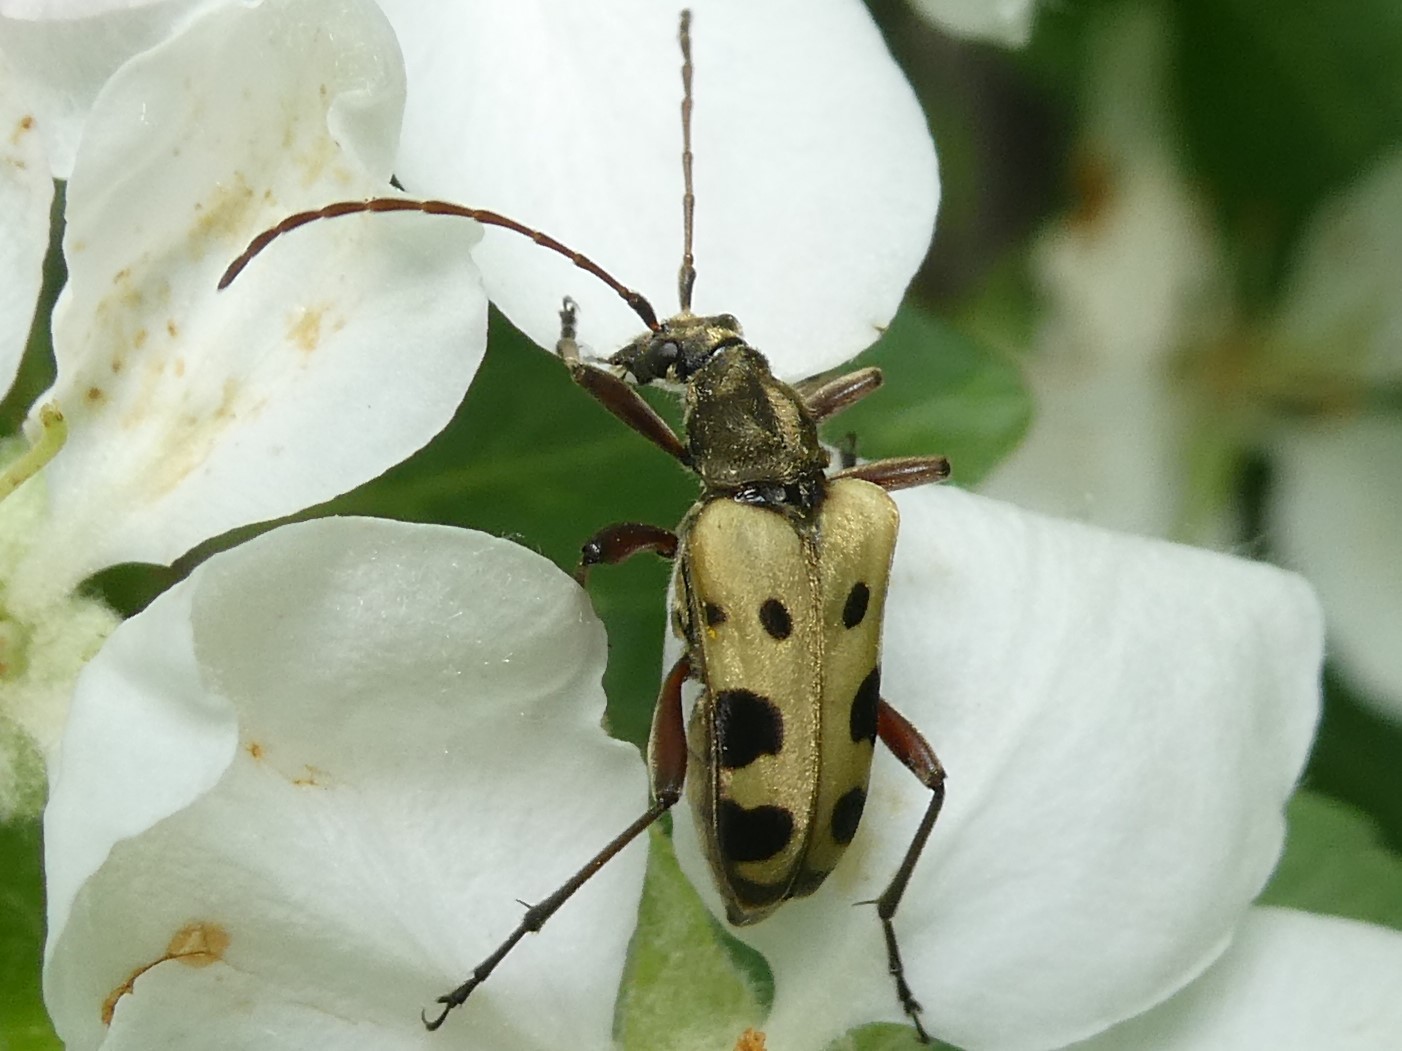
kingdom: Animalia
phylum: Arthropoda
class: Insecta
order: Coleoptera
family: Cerambycidae
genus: Evodinus
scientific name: Evodinus monticola
